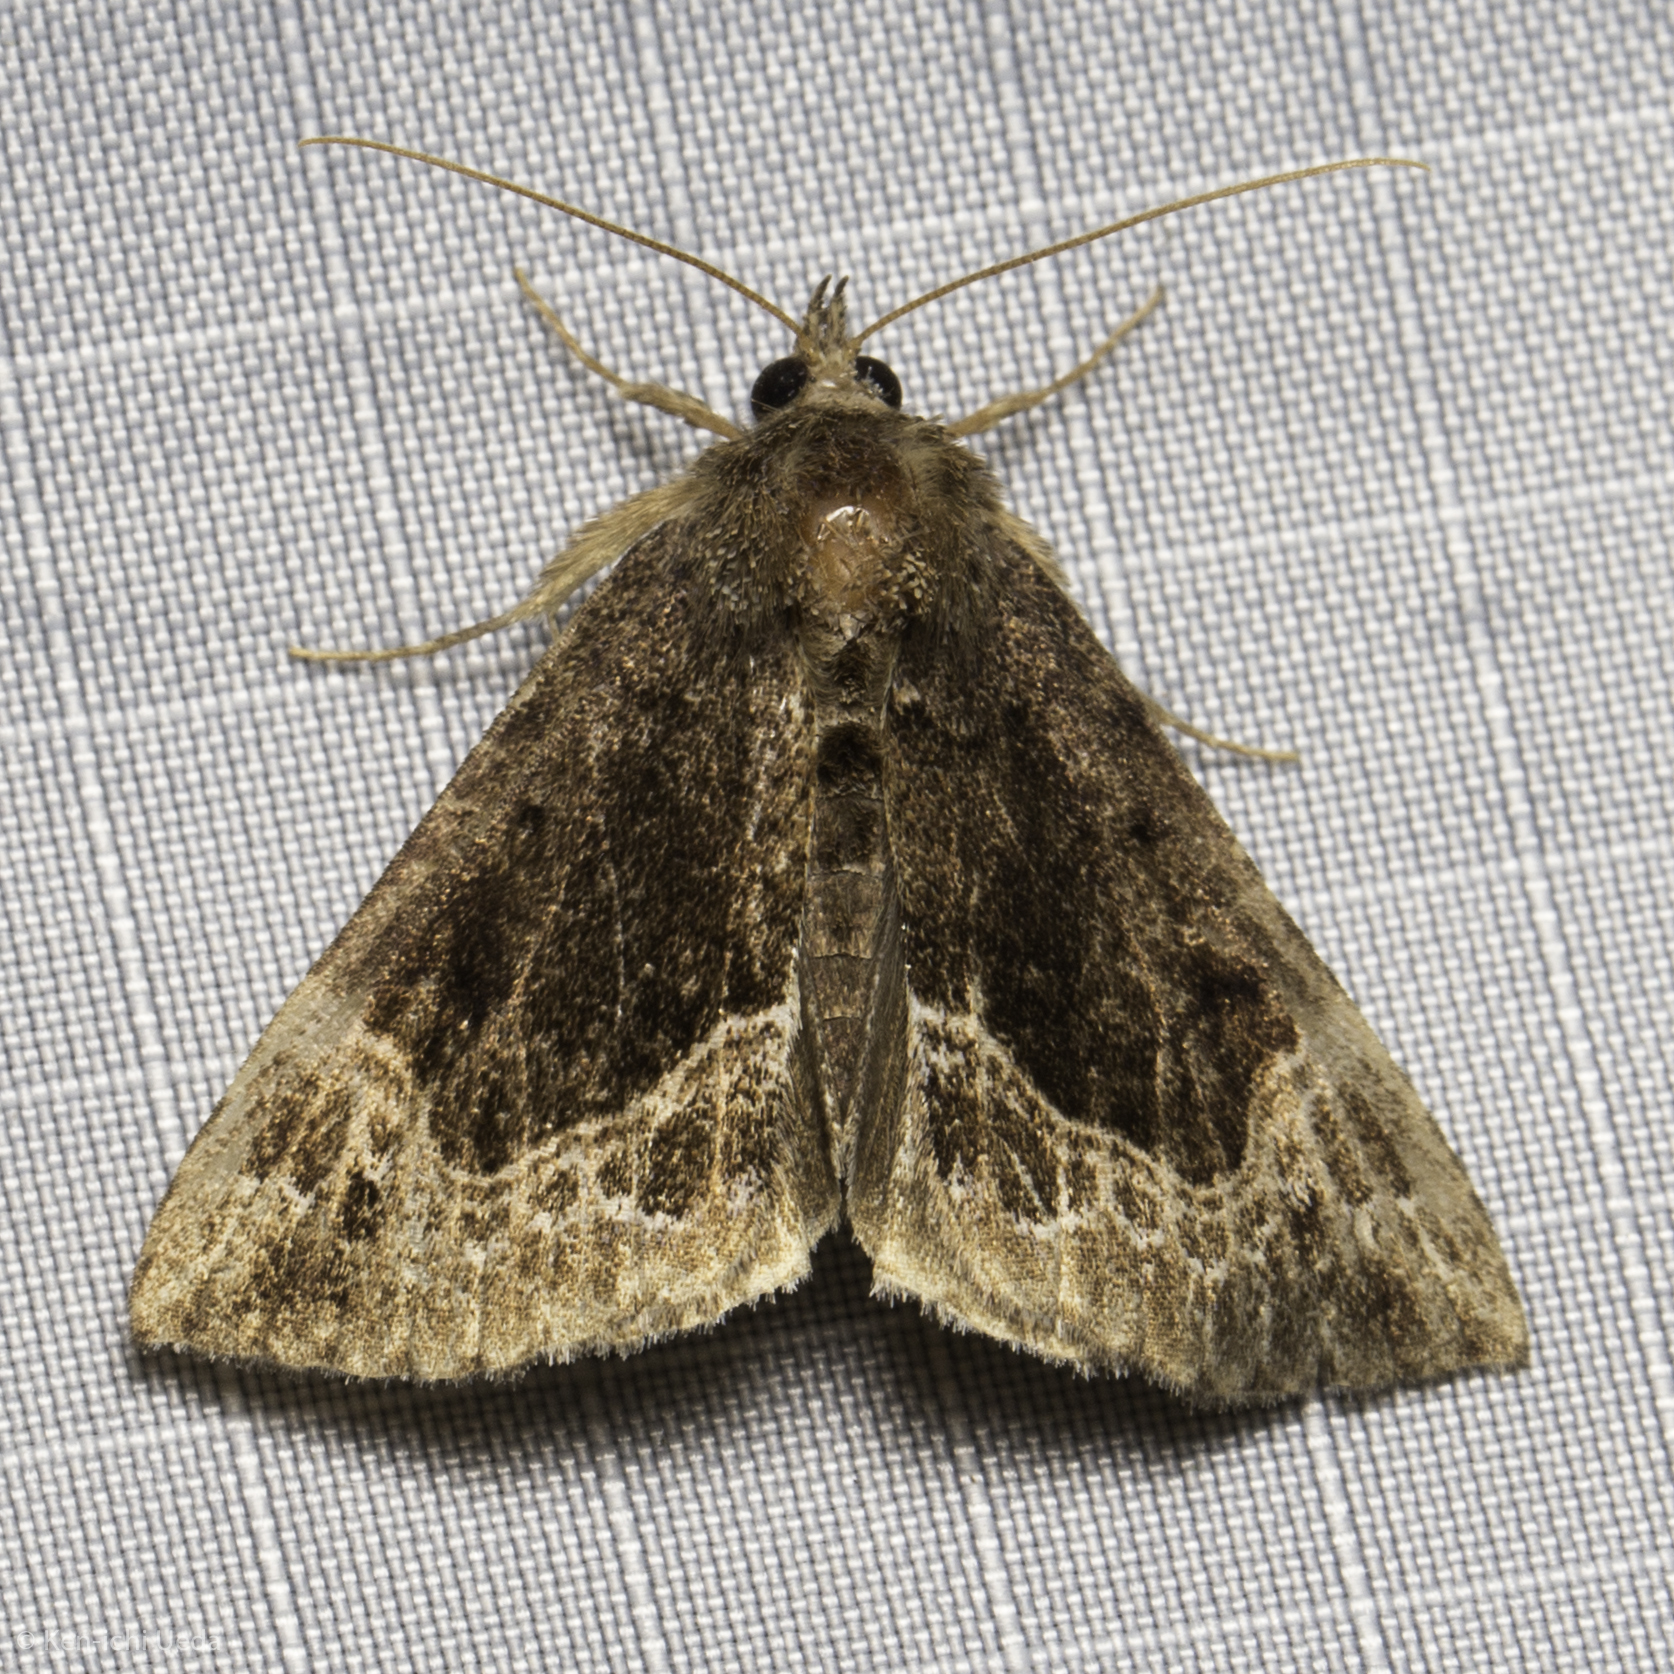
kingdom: Animalia
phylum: Arthropoda
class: Insecta
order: Lepidoptera
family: Erebidae
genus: Hypena
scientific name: Hypena abalienalis
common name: White-lined snout
